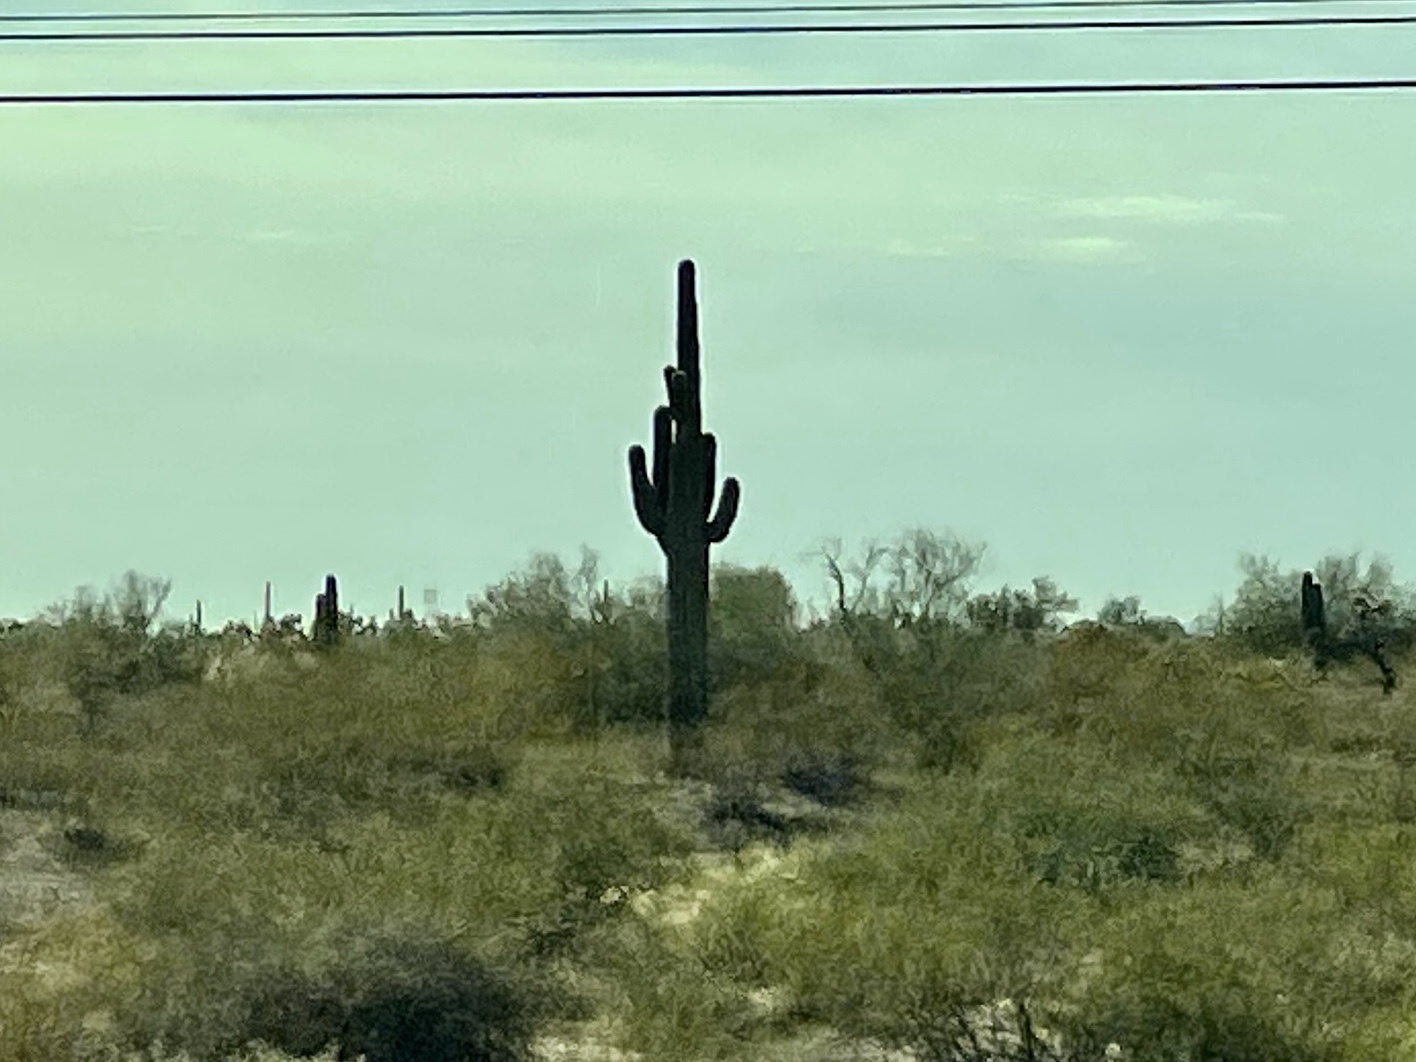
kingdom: Plantae
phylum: Tracheophyta
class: Magnoliopsida
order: Caryophyllales
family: Cactaceae
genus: Carnegiea
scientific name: Carnegiea gigantea
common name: Saguaro
